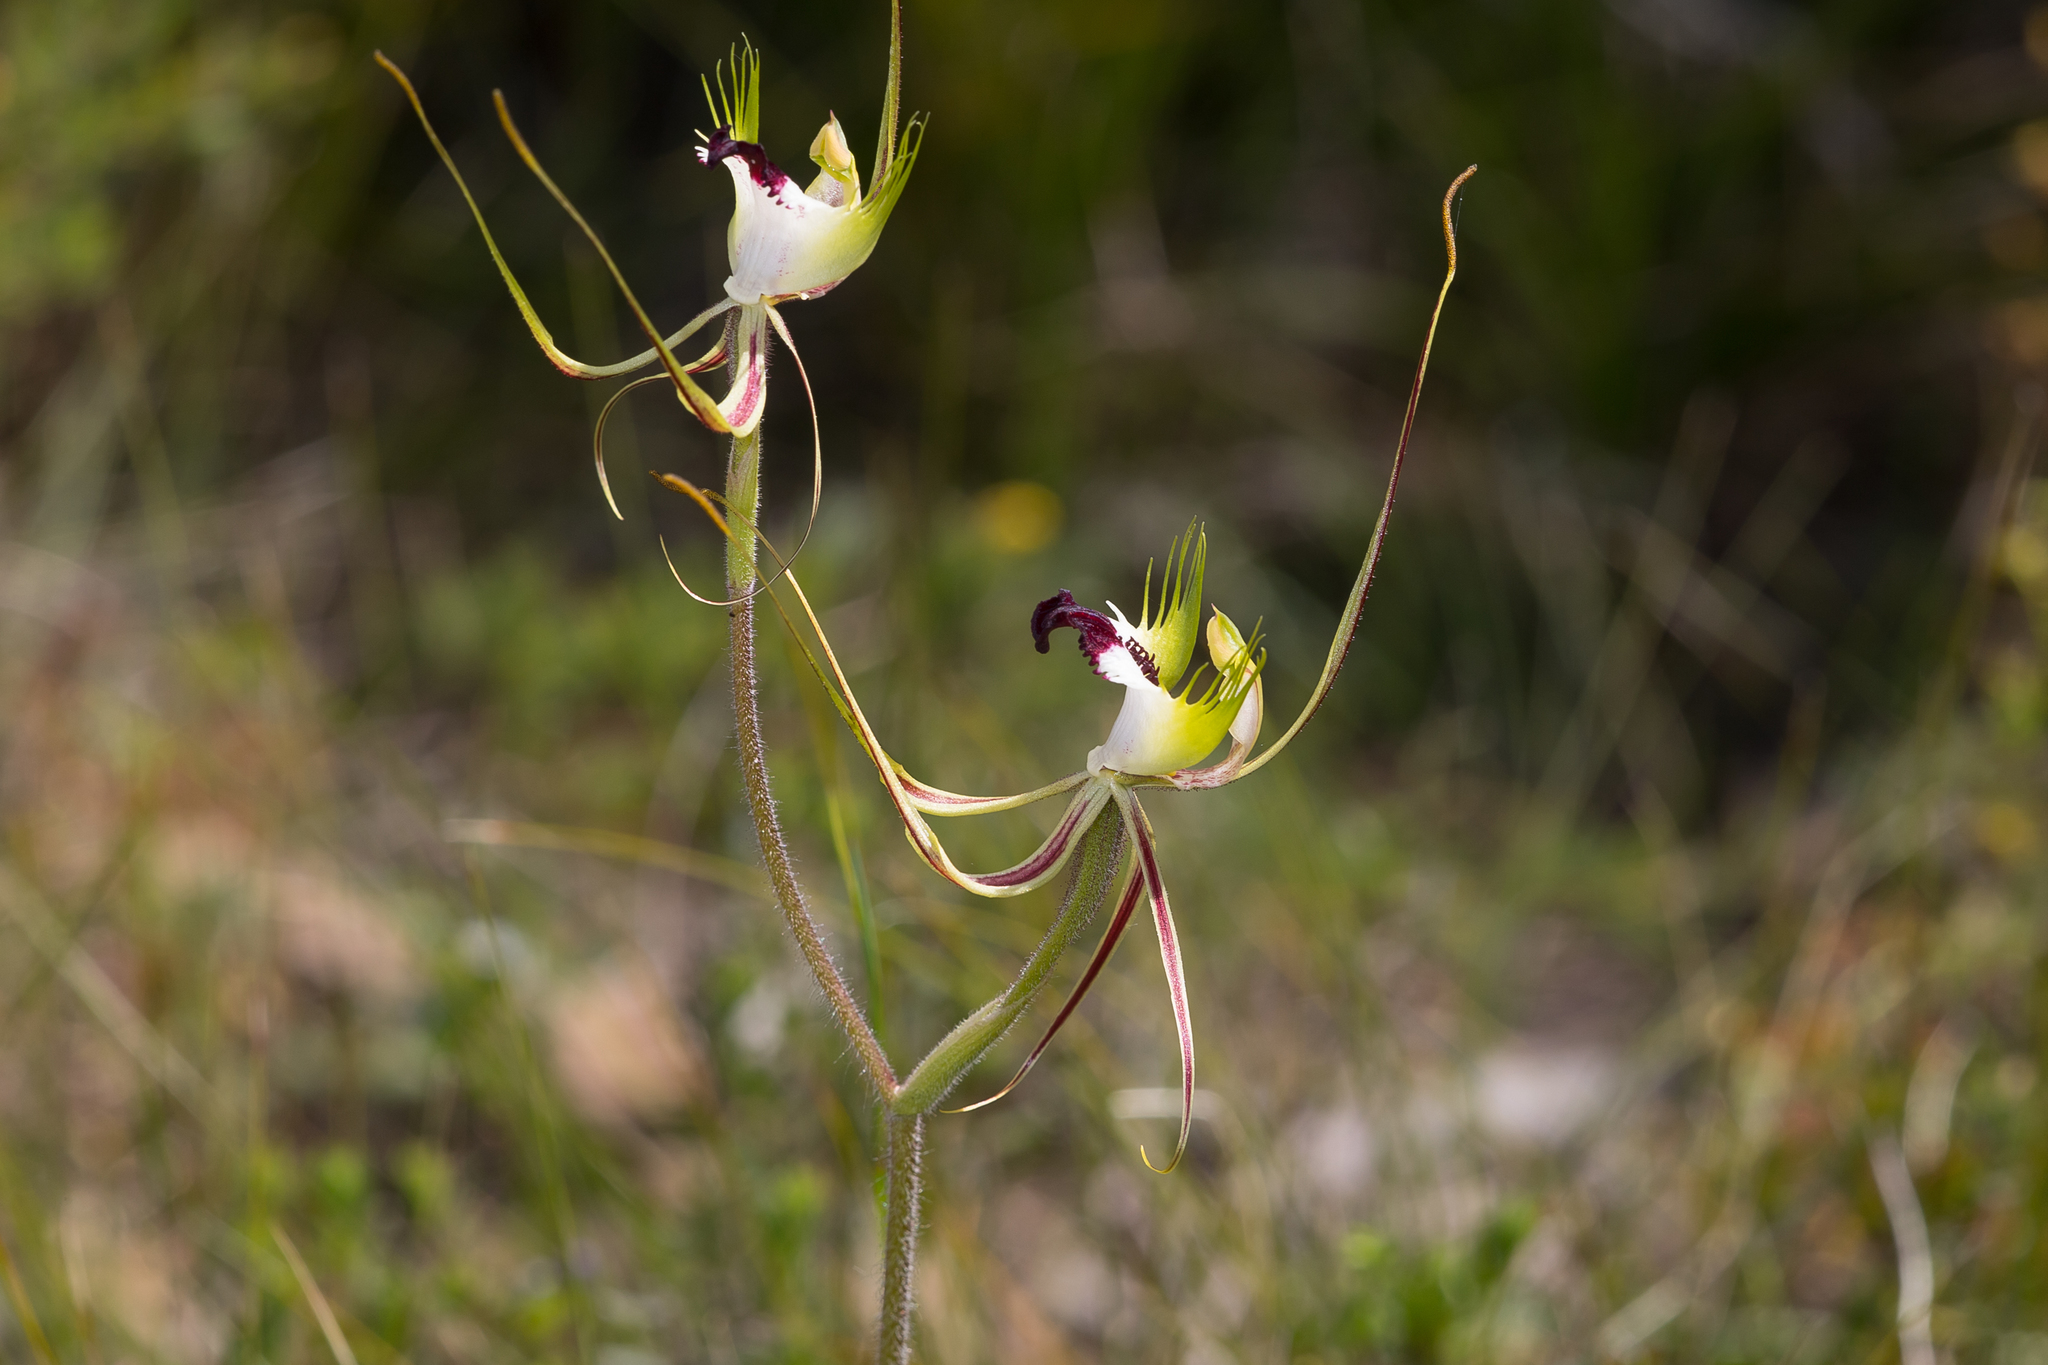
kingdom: Plantae
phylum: Tracheophyta
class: Liliopsida
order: Asparagales
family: Orchidaceae
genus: Caladenia
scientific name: Caladenia tentaculata
